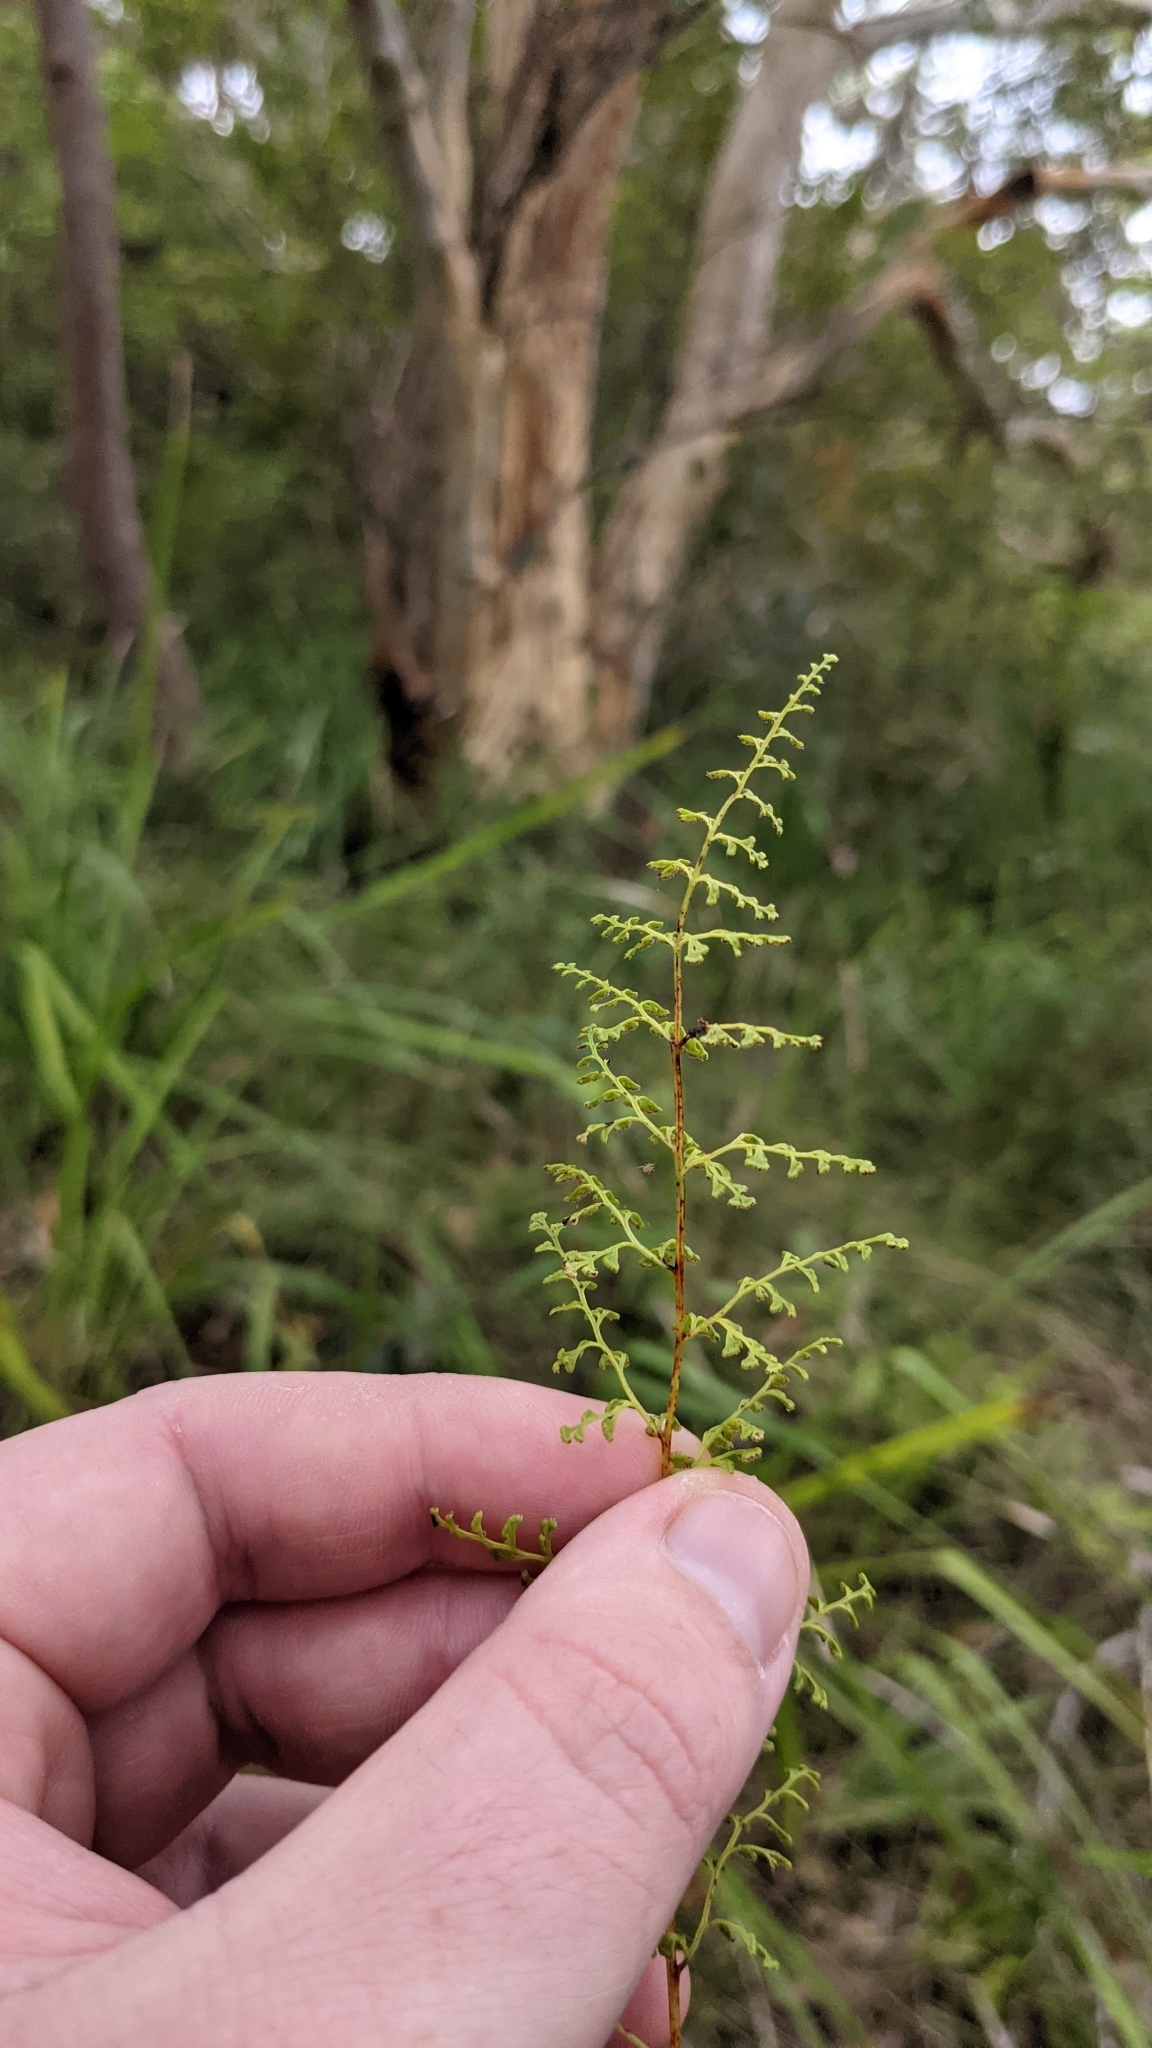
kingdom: Plantae
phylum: Tracheophyta
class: Polypodiopsida
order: Polypodiales
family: Lindsaeaceae
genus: Lindsaea
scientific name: Lindsaea microphylla
